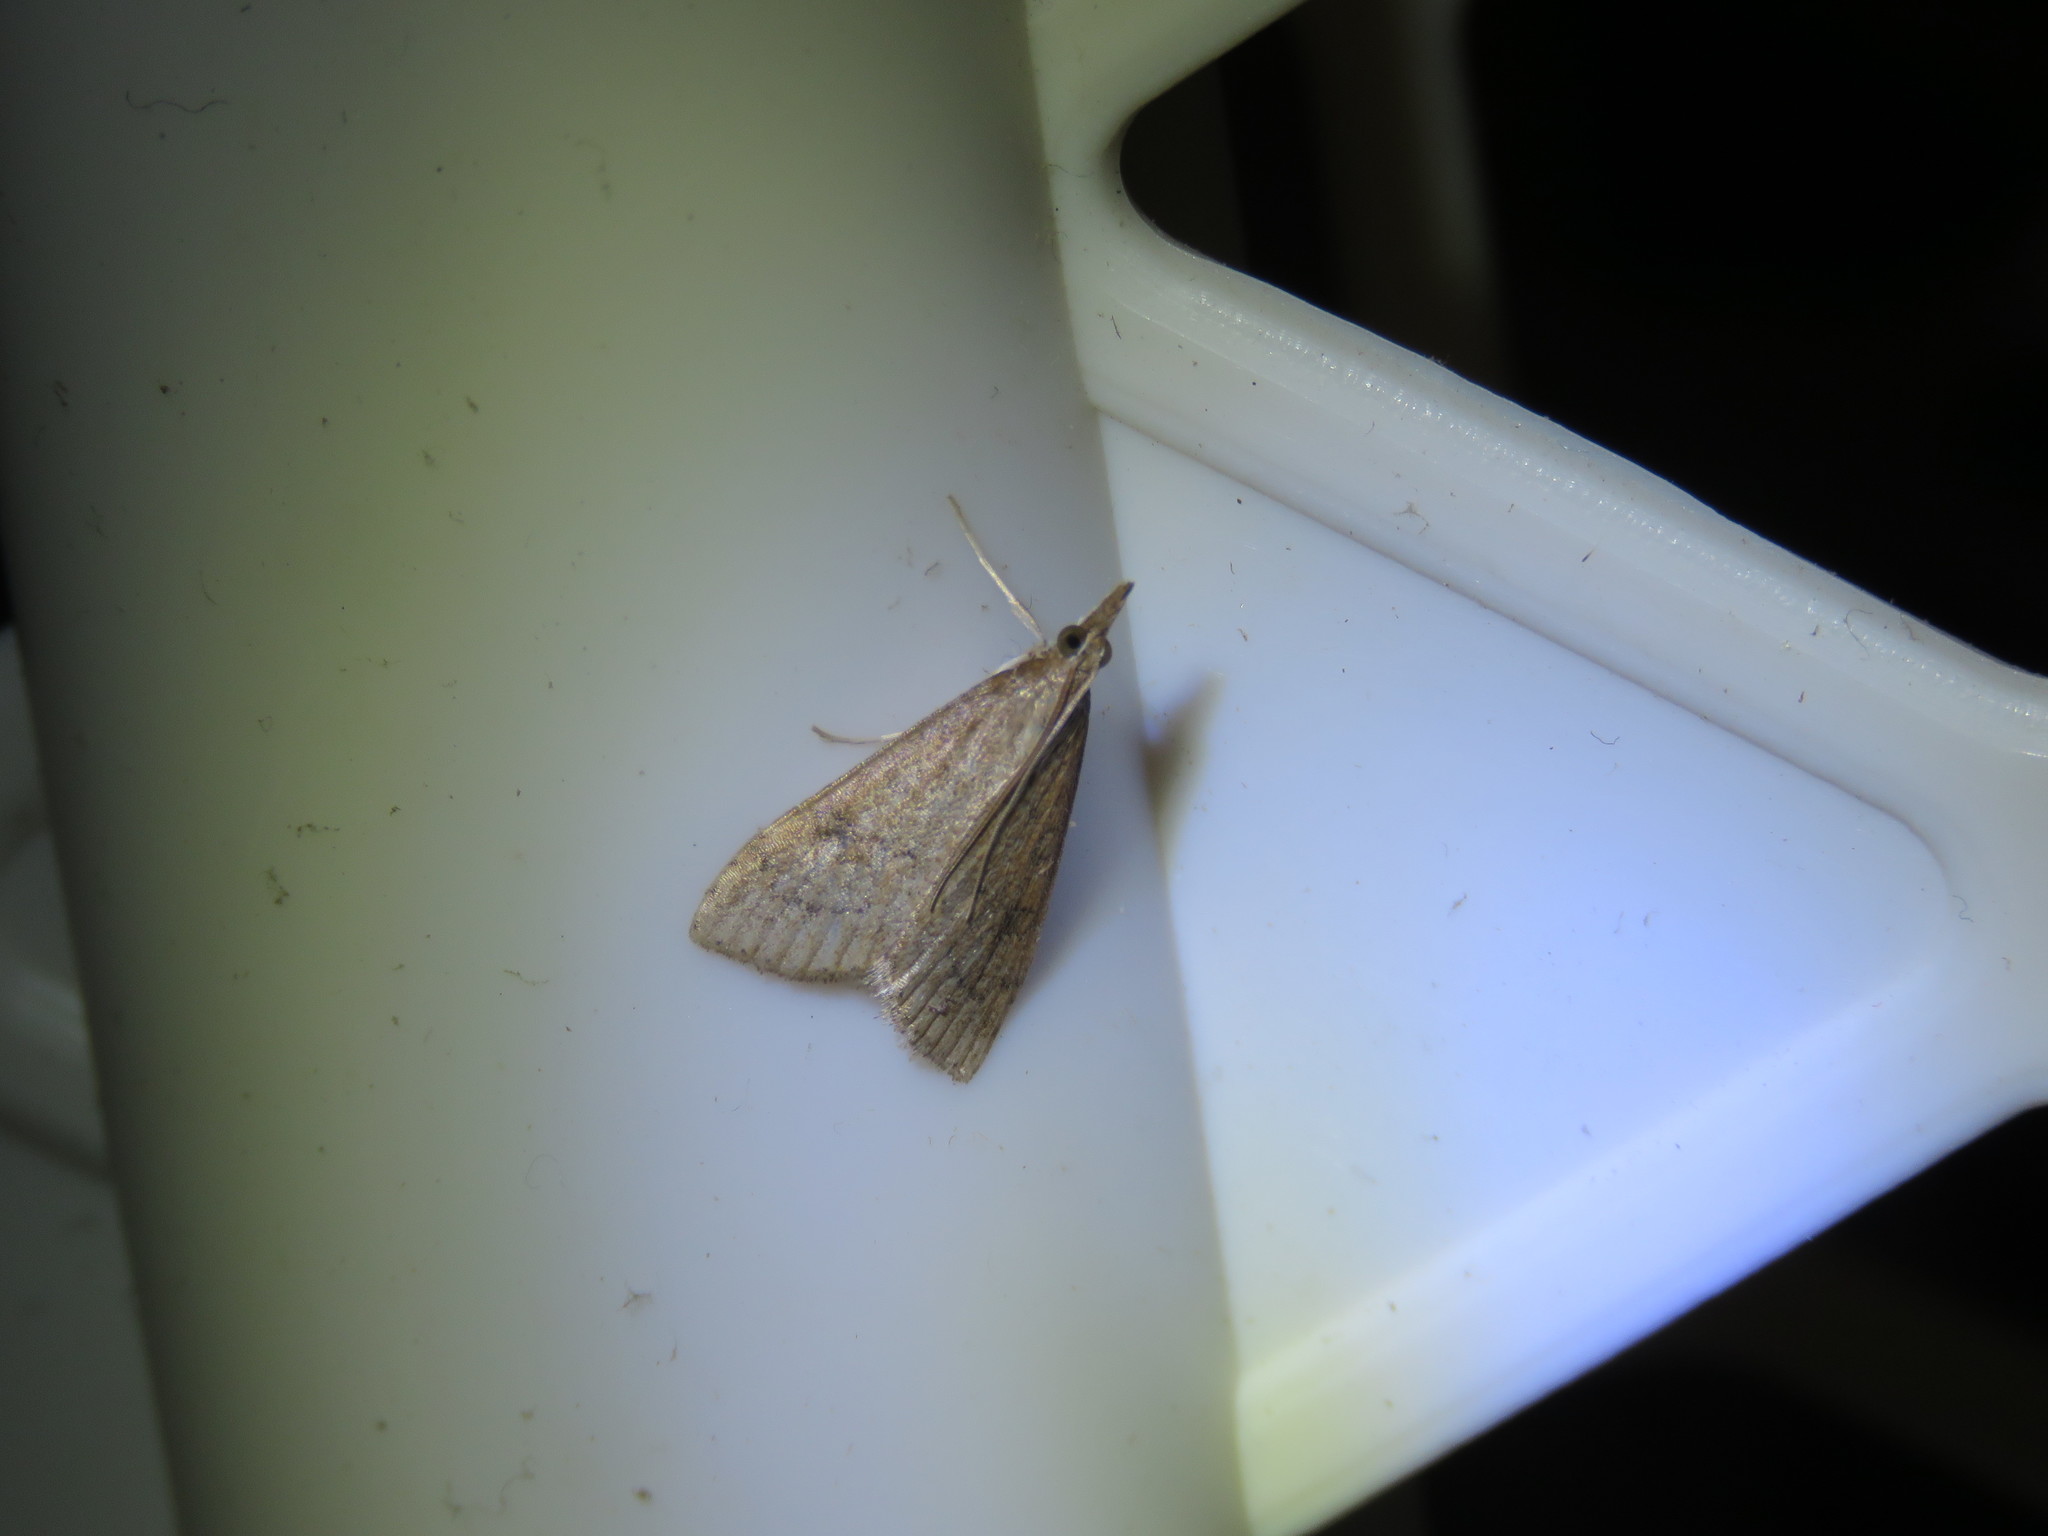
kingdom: Animalia
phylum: Arthropoda
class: Insecta
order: Lepidoptera
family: Crambidae
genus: Udea
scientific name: Udea rubigalis
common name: Celery leaftier moth
